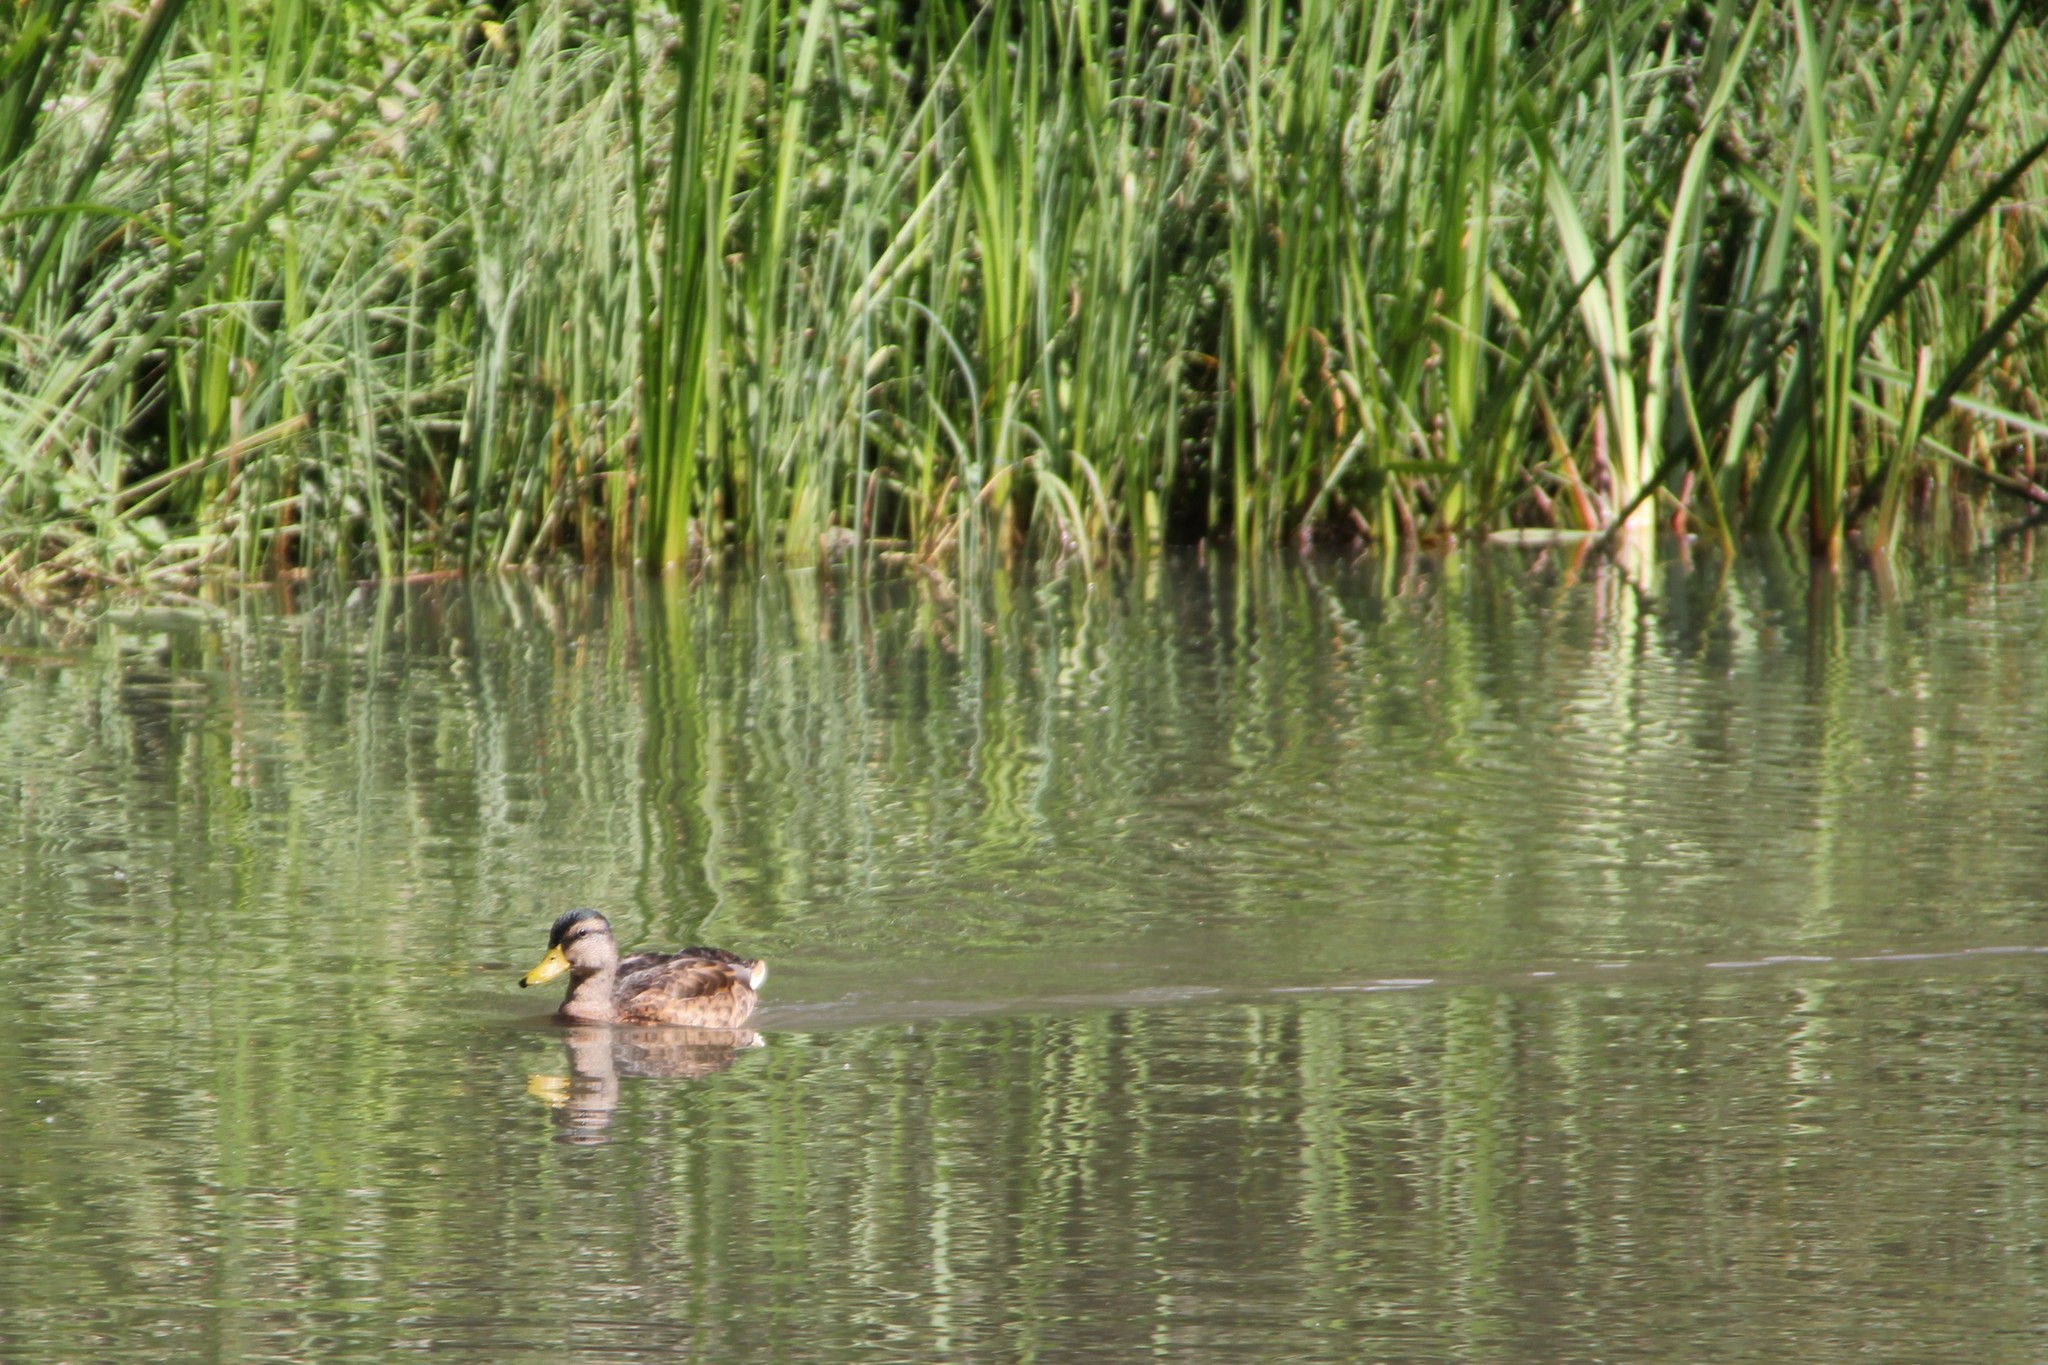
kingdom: Animalia
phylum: Chordata
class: Aves
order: Anseriformes
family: Anatidae
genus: Anas
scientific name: Anas platyrhynchos
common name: Mallard
